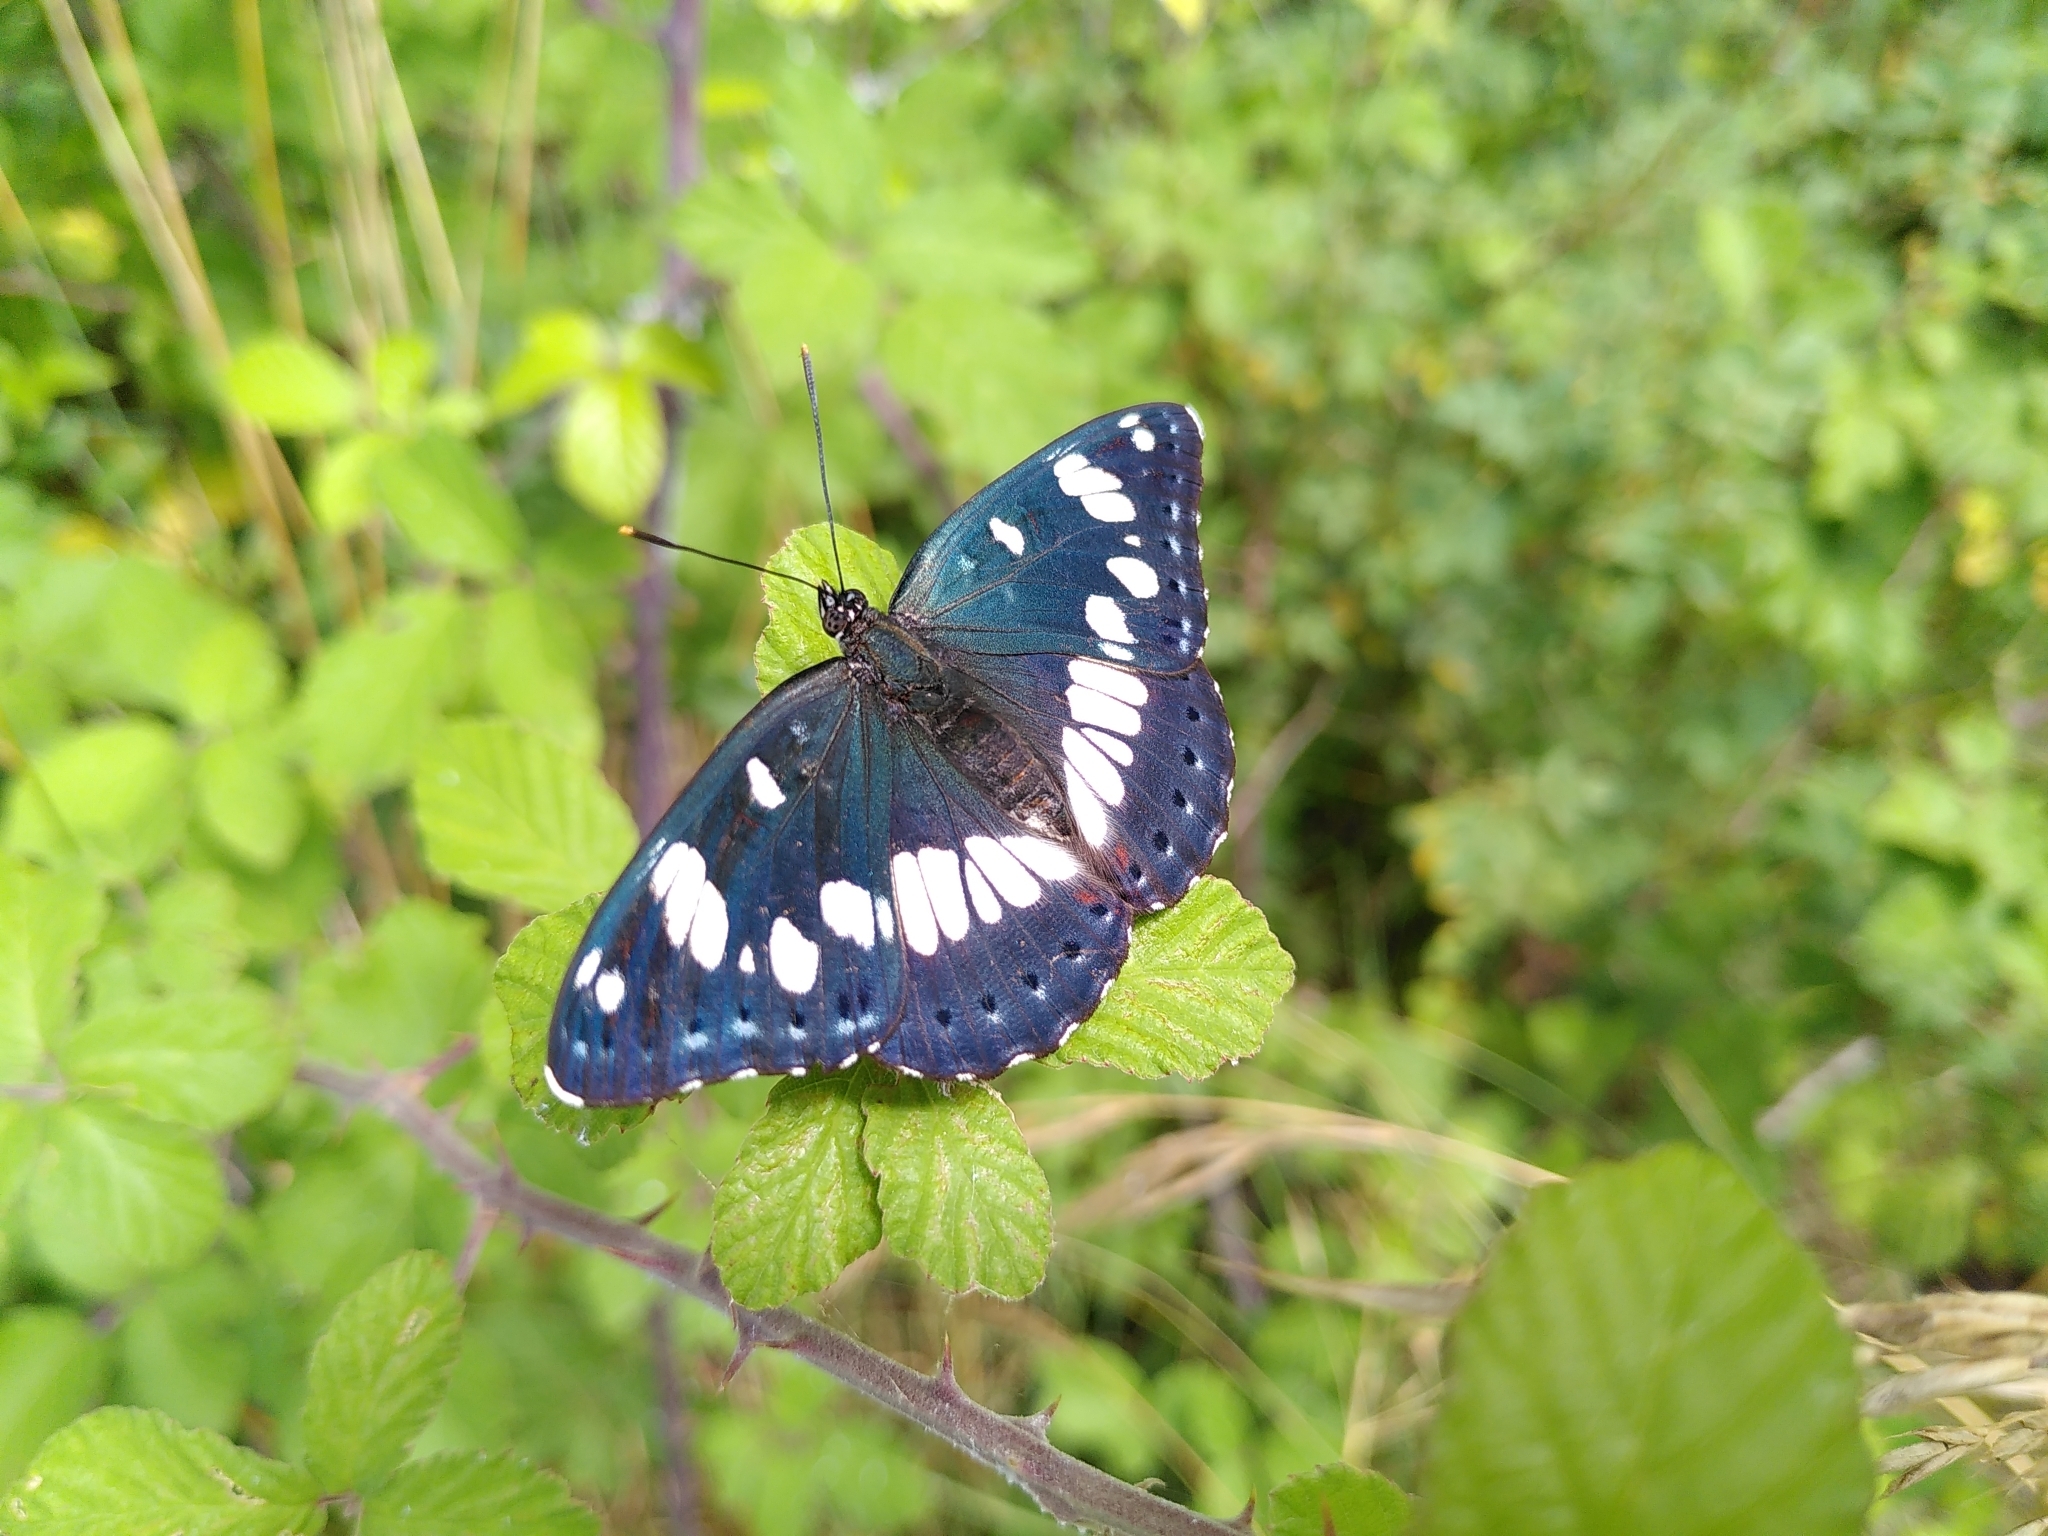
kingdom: Animalia
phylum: Arthropoda
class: Insecta
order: Lepidoptera
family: Nymphalidae
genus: Limenitis
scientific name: Limenitis reducta
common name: Southern white admiral
